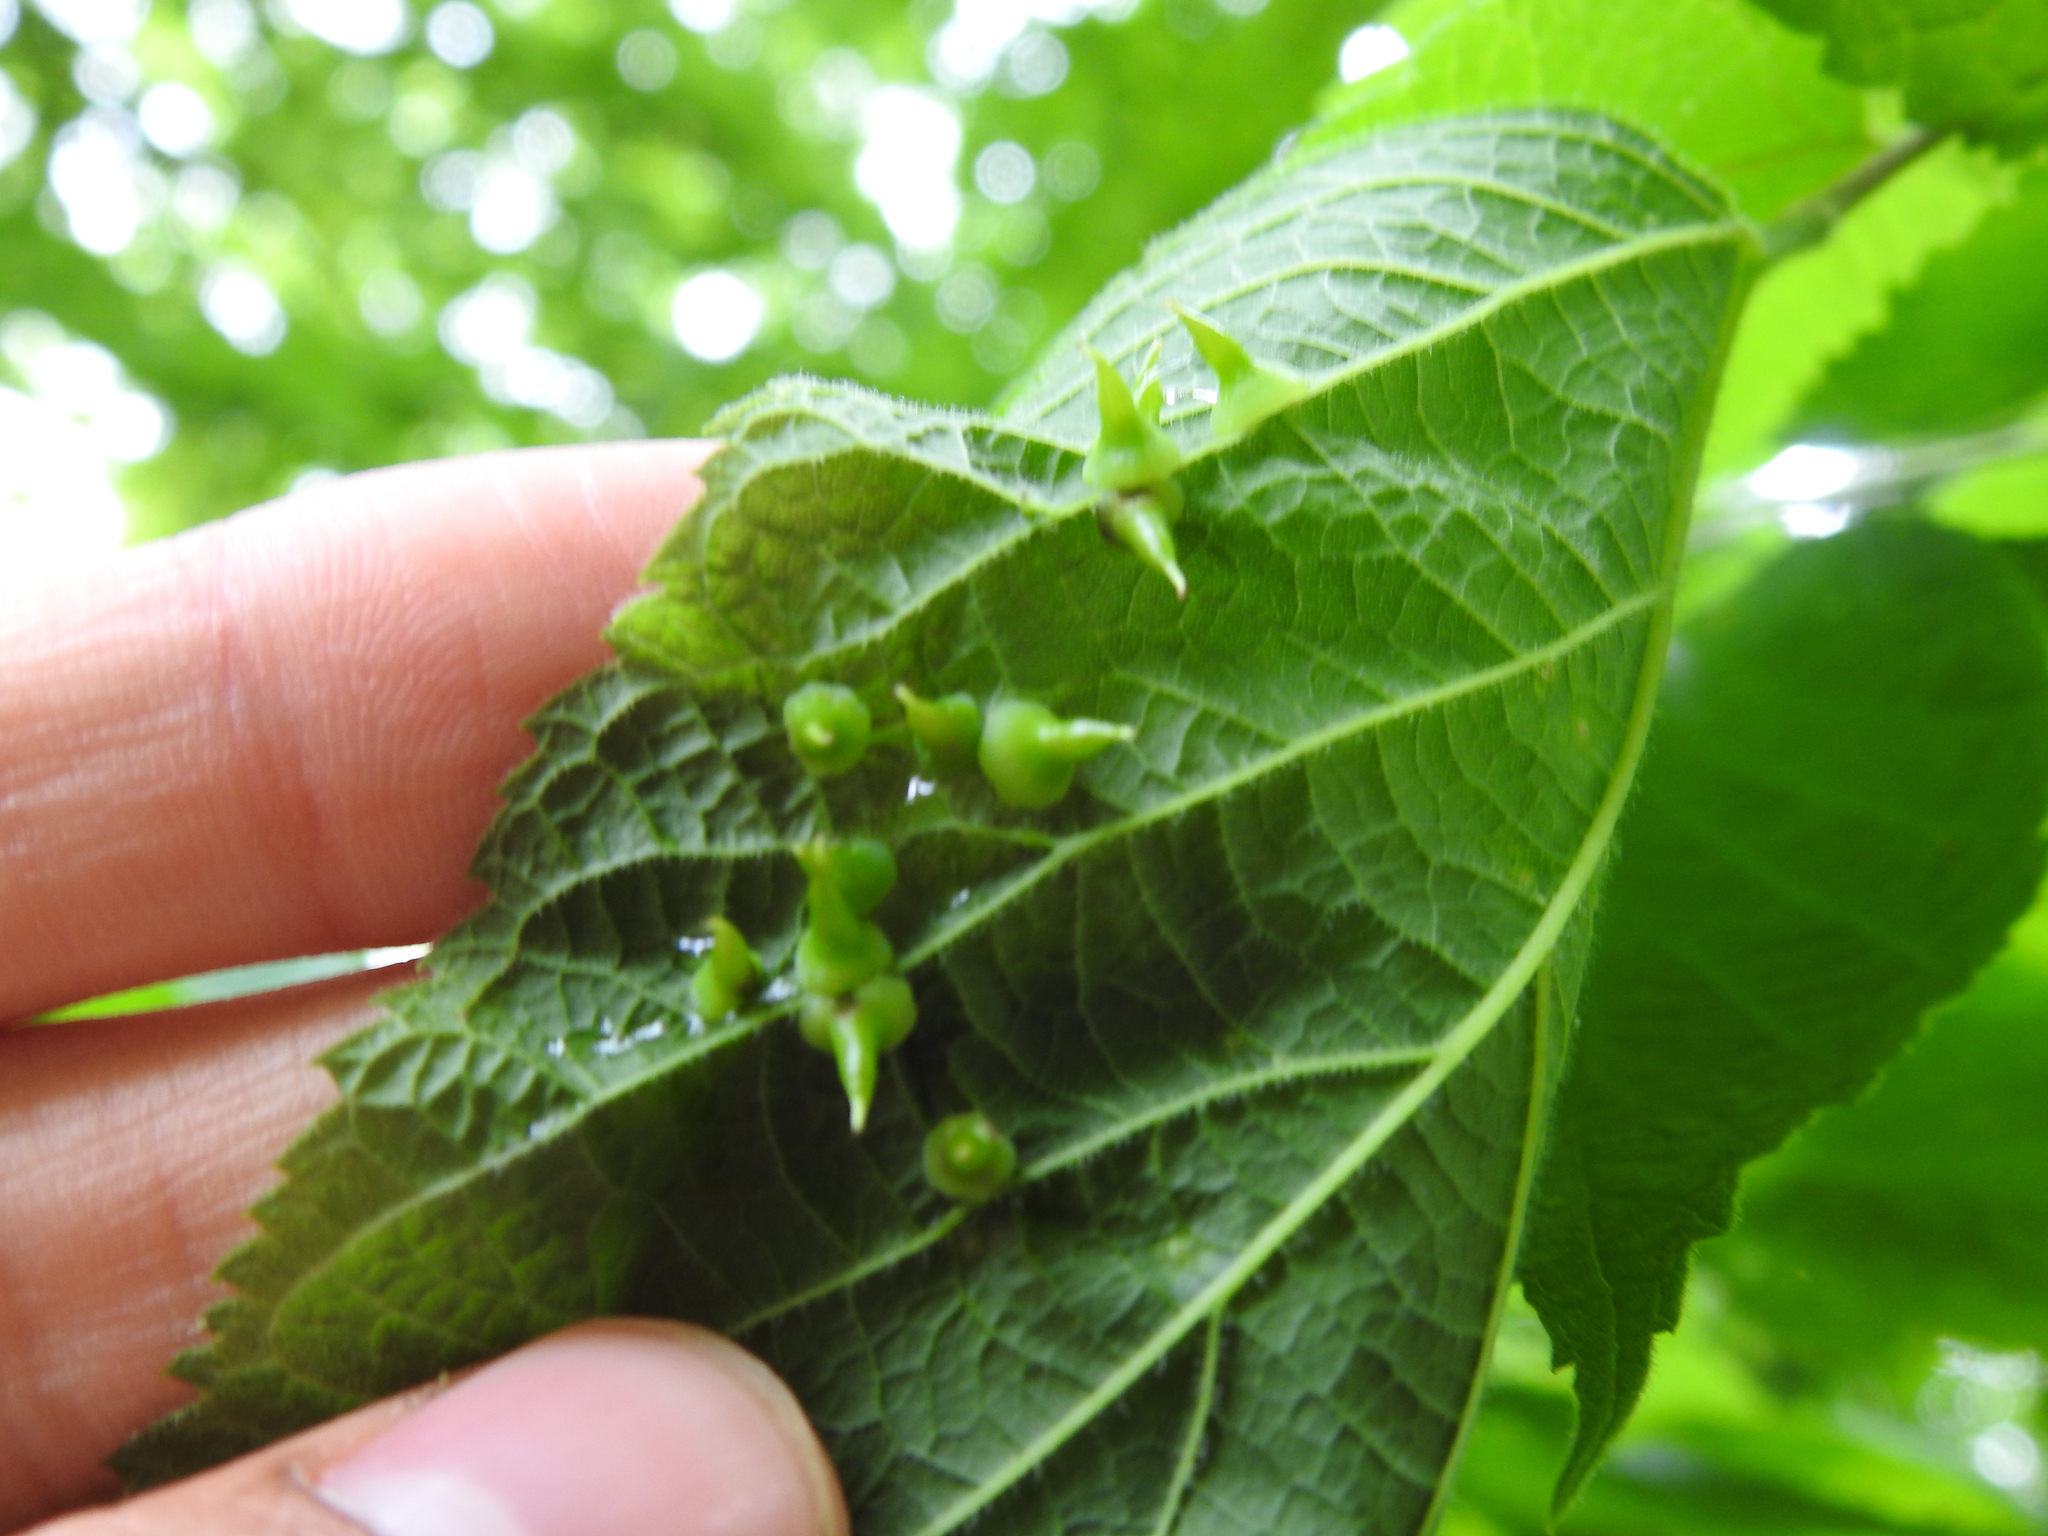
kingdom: Animalia
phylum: Arthropoda
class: Insecta
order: Diptera
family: Cecidomyiidae
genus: Celticecis
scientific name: Celticecis spiniformis
